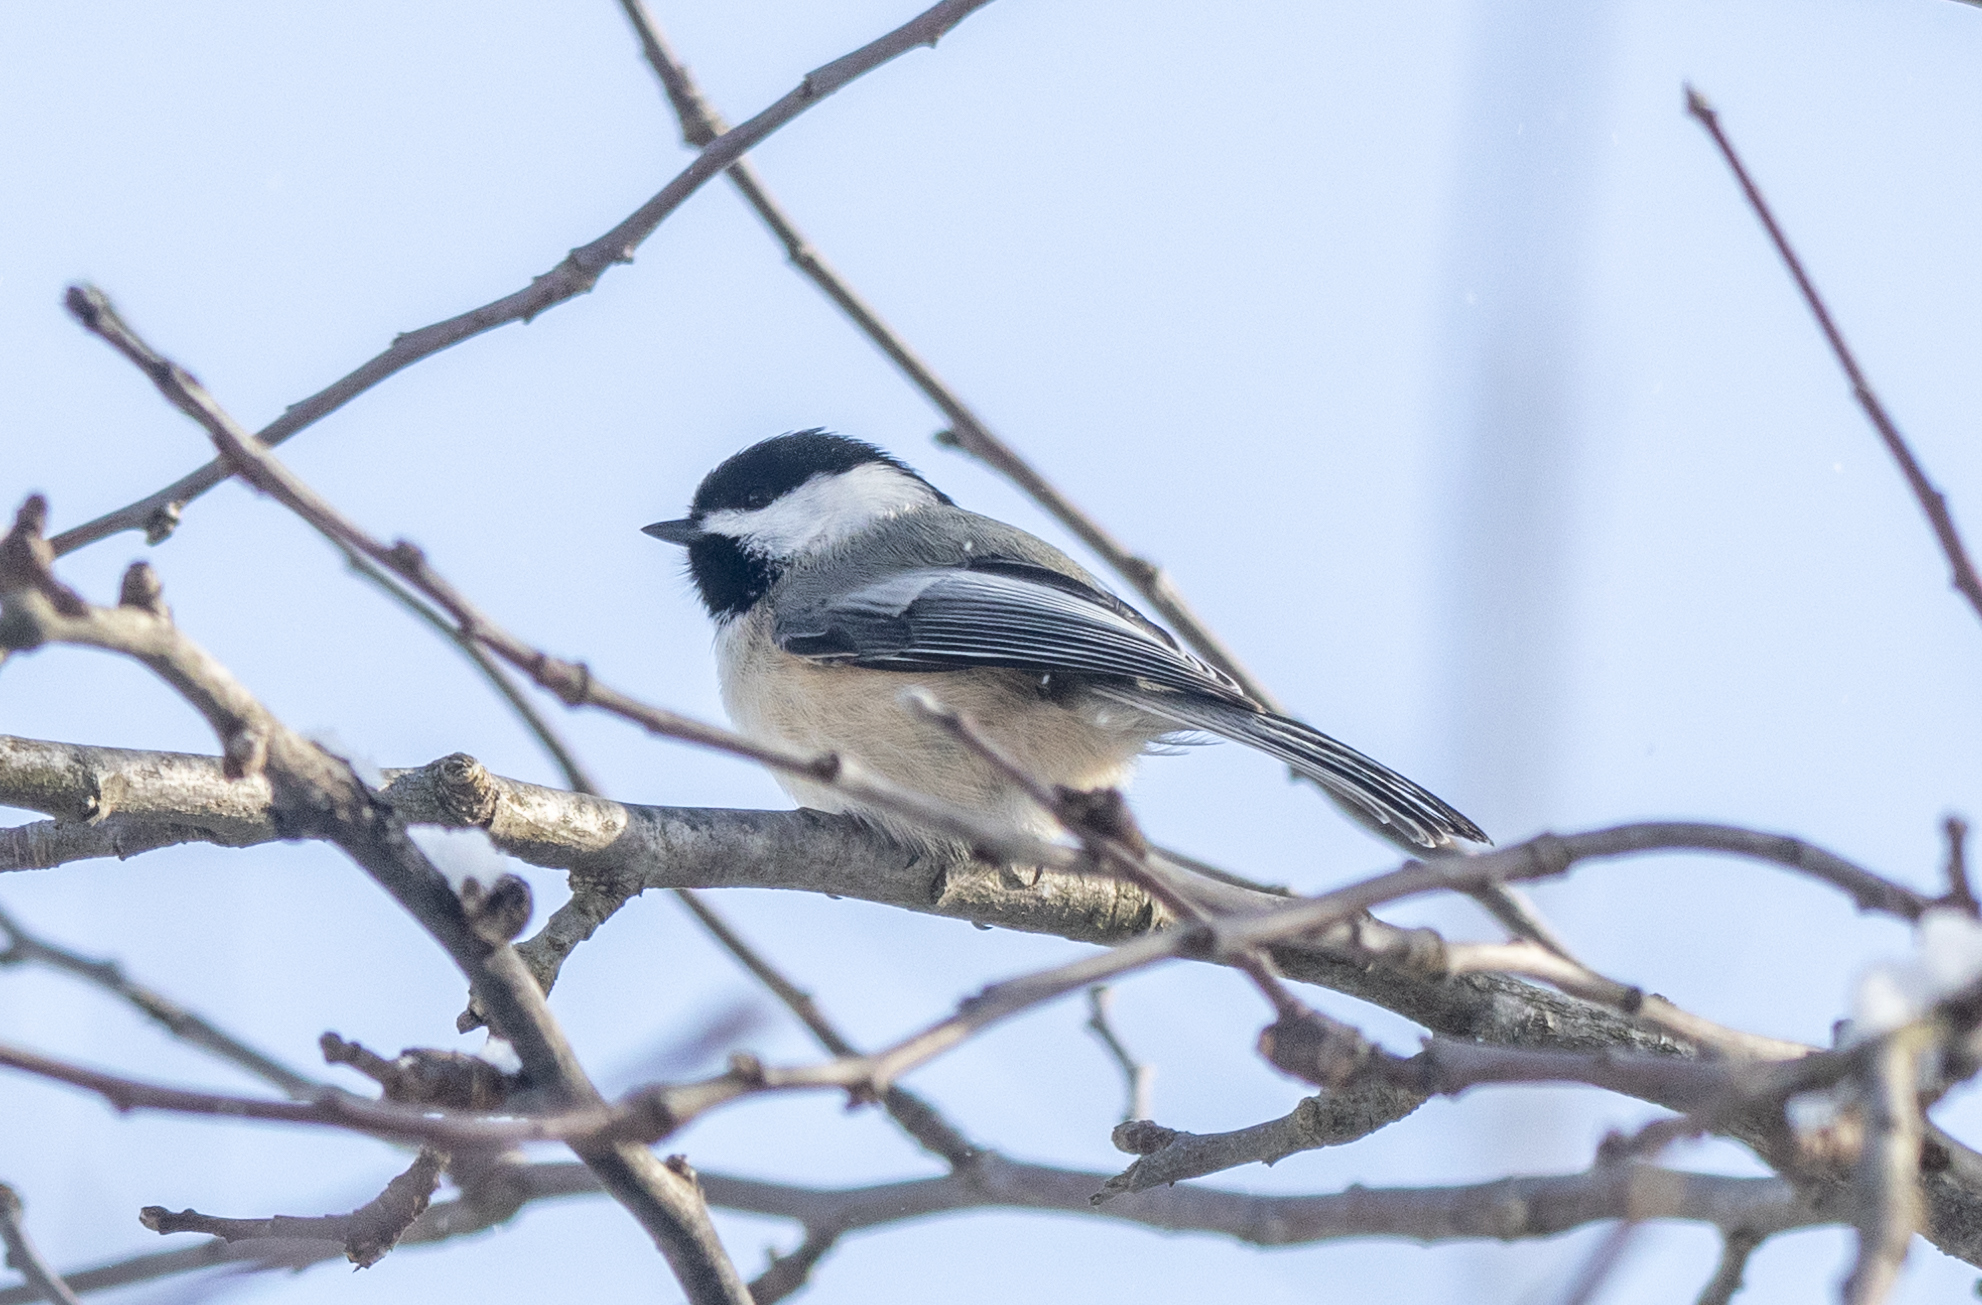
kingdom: Animalia
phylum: Chordata
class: Aves
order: Passeriformes
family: Paridae
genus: Poecile
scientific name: Poecile atricapillus
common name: Black-capped chickadee
